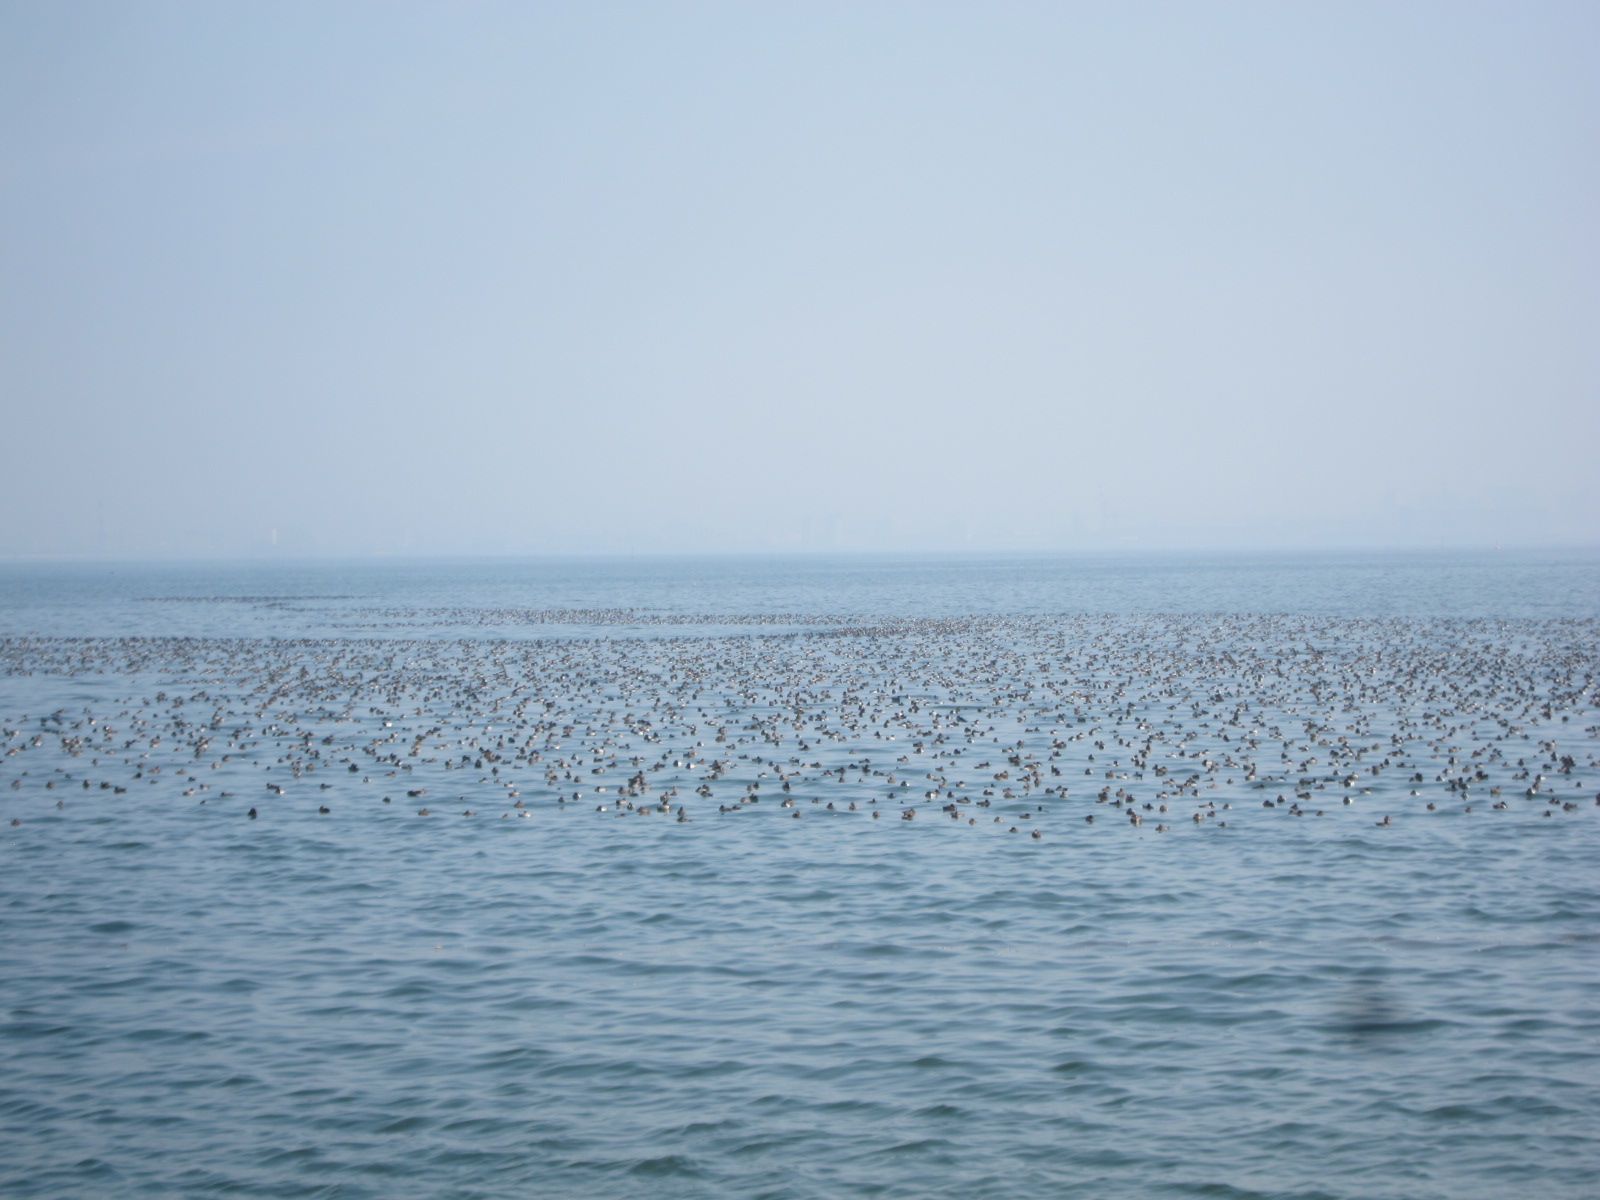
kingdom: Animalia
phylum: Chordata
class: Aves
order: Anseriformes
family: Anatidae
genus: Aythya
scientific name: Aythya fuligula
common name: Tufted duck
